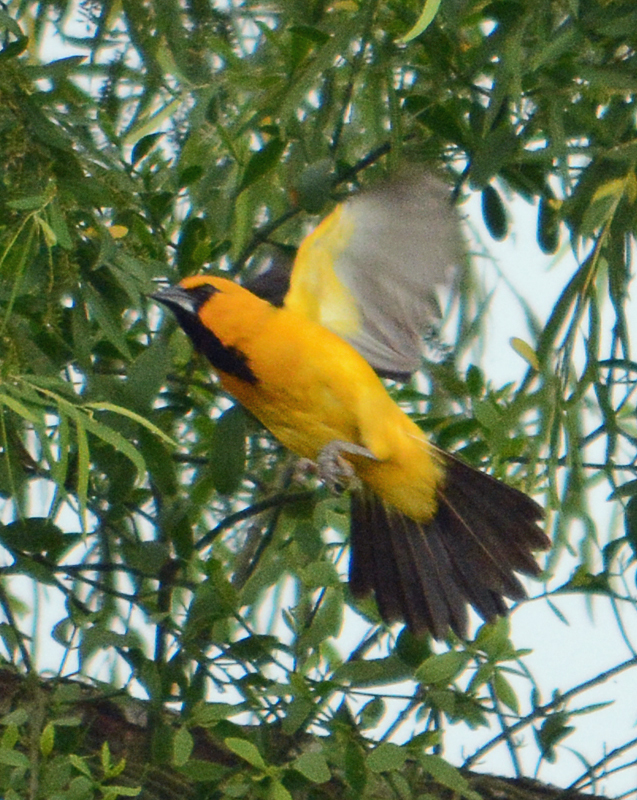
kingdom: Animalia
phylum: Chordata
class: Aves
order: Passeriformes
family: Icteridae
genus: Icterus
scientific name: Icterus gularis
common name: Altamira oriole
